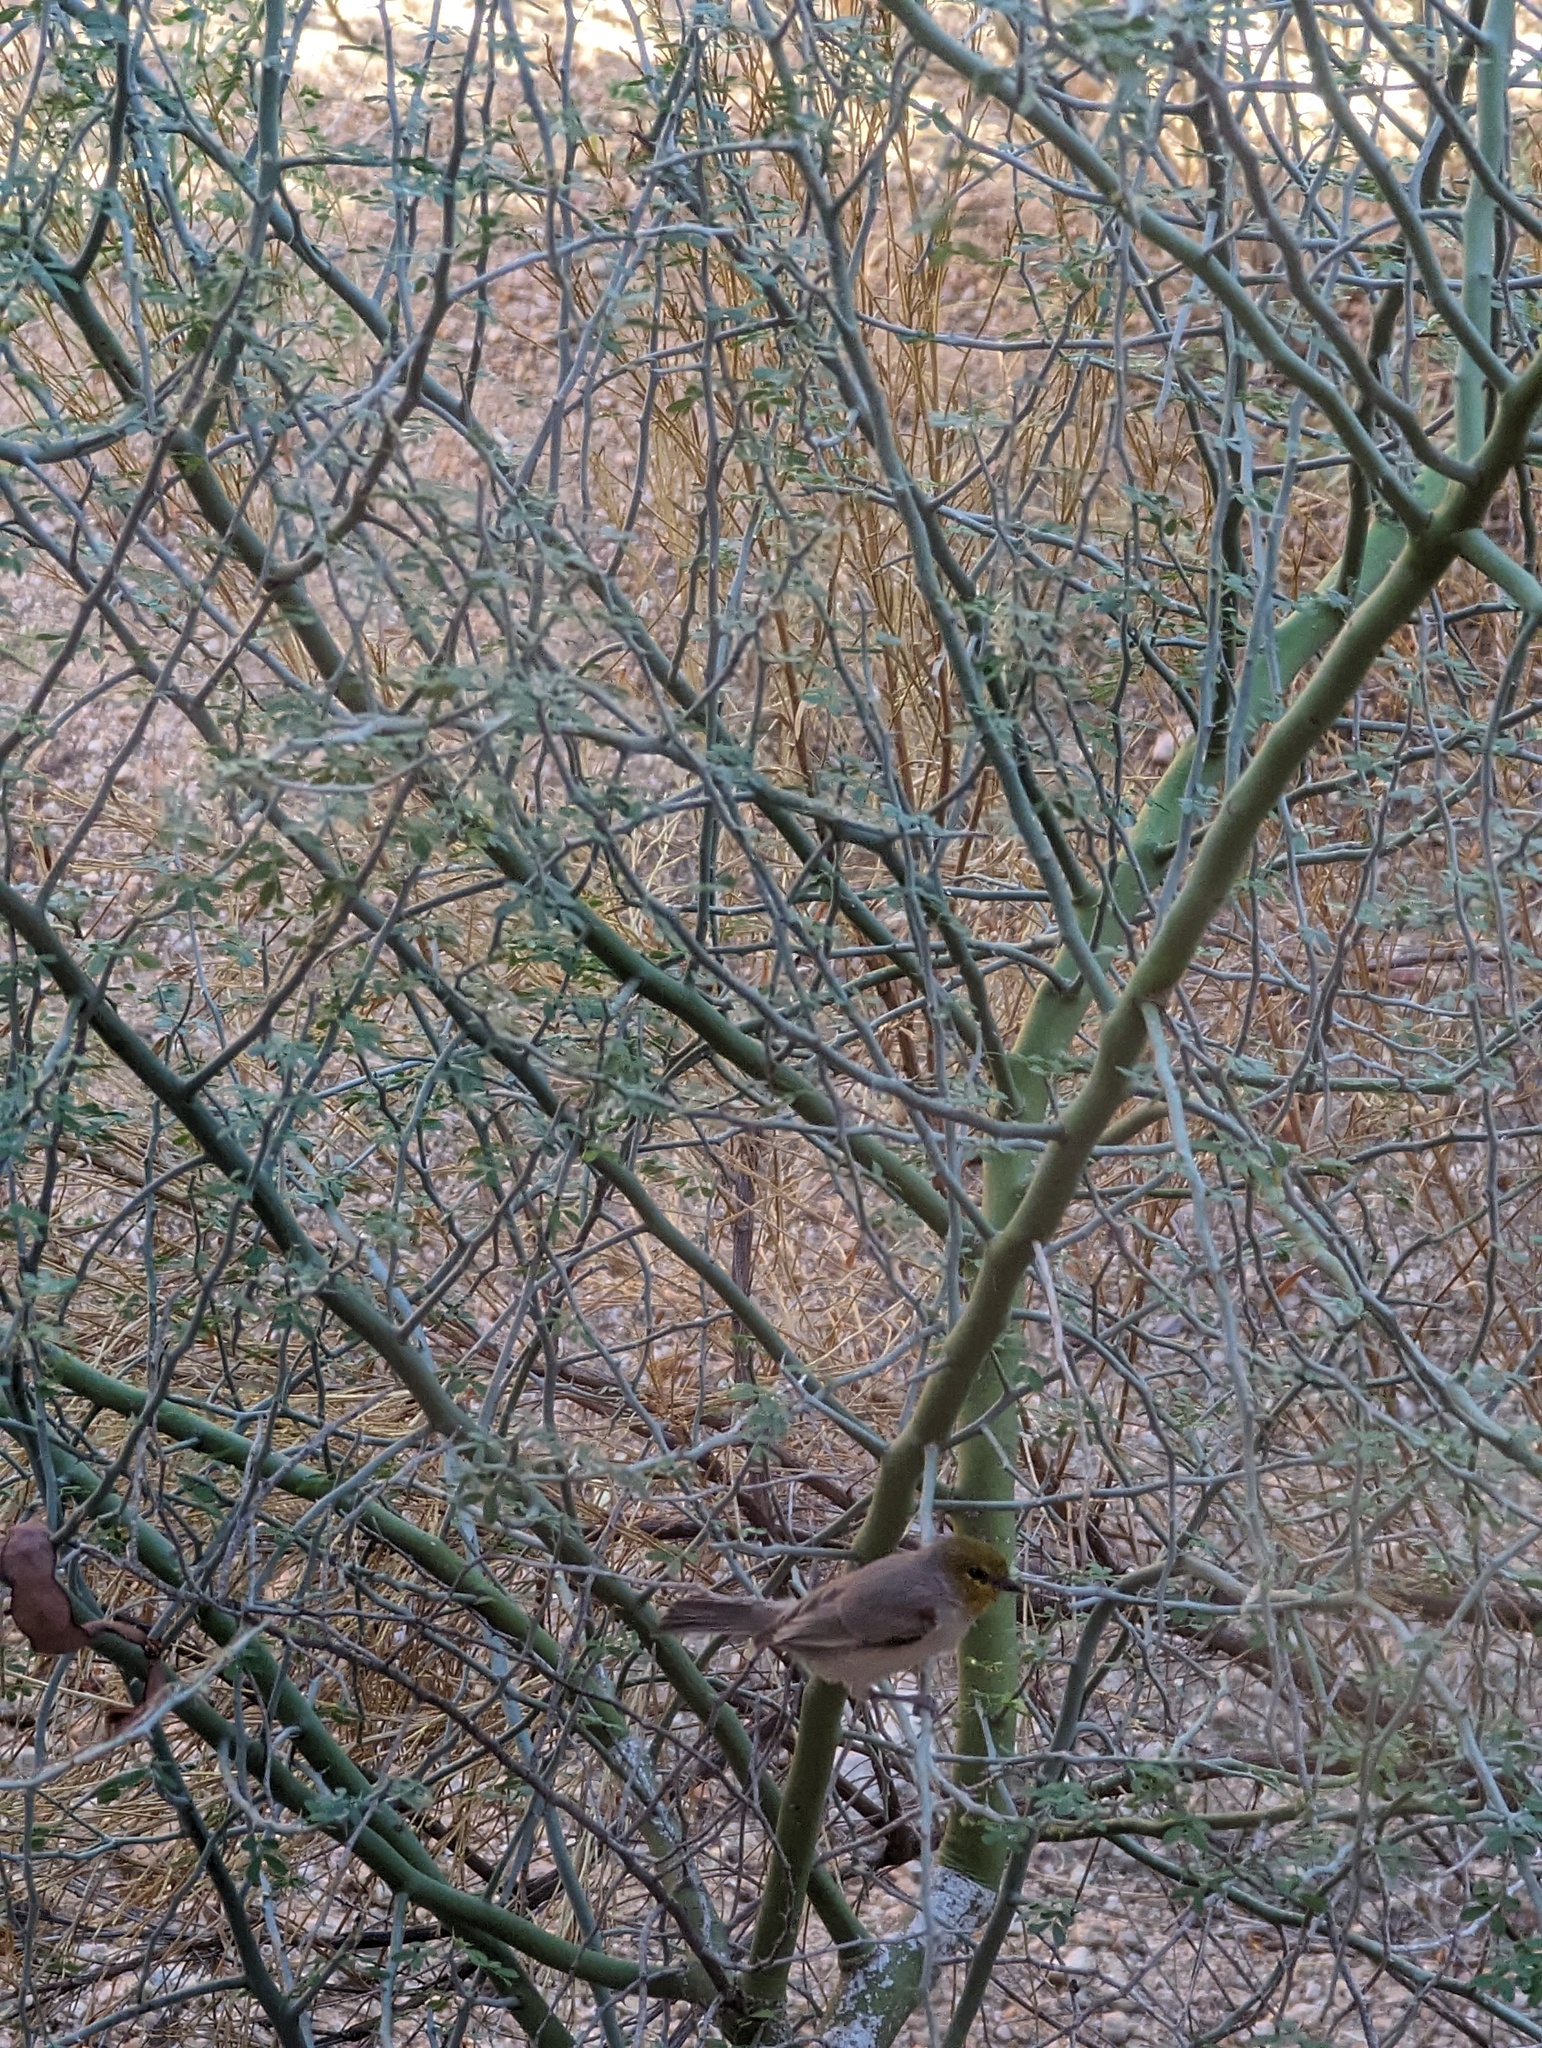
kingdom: Animalia
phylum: Chordata
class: Aves
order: Passeriformes
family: Remizidae
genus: Auriparus
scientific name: Auriparus flaviceps
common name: Verdin
